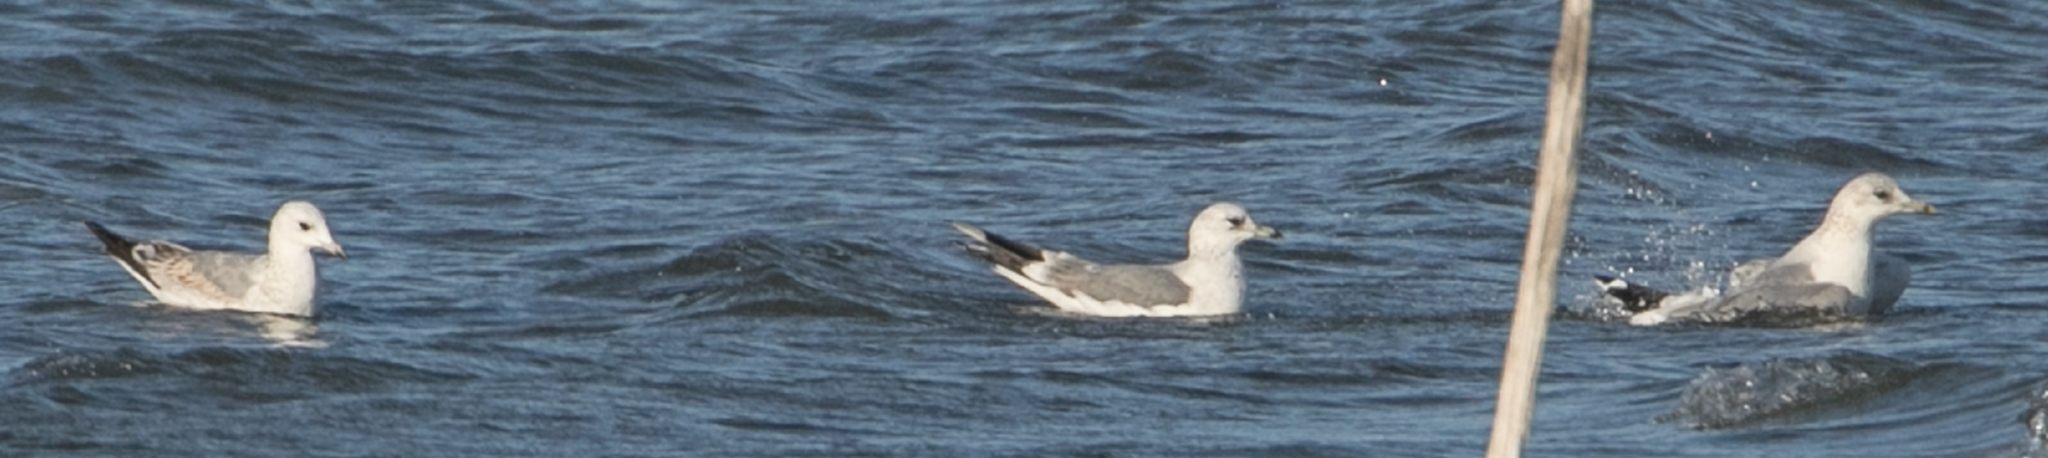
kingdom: Animalia
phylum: Chordata
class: Aves
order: Charadriiformes
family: Laridae
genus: Larus
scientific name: Larus canus
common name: Mew gull
